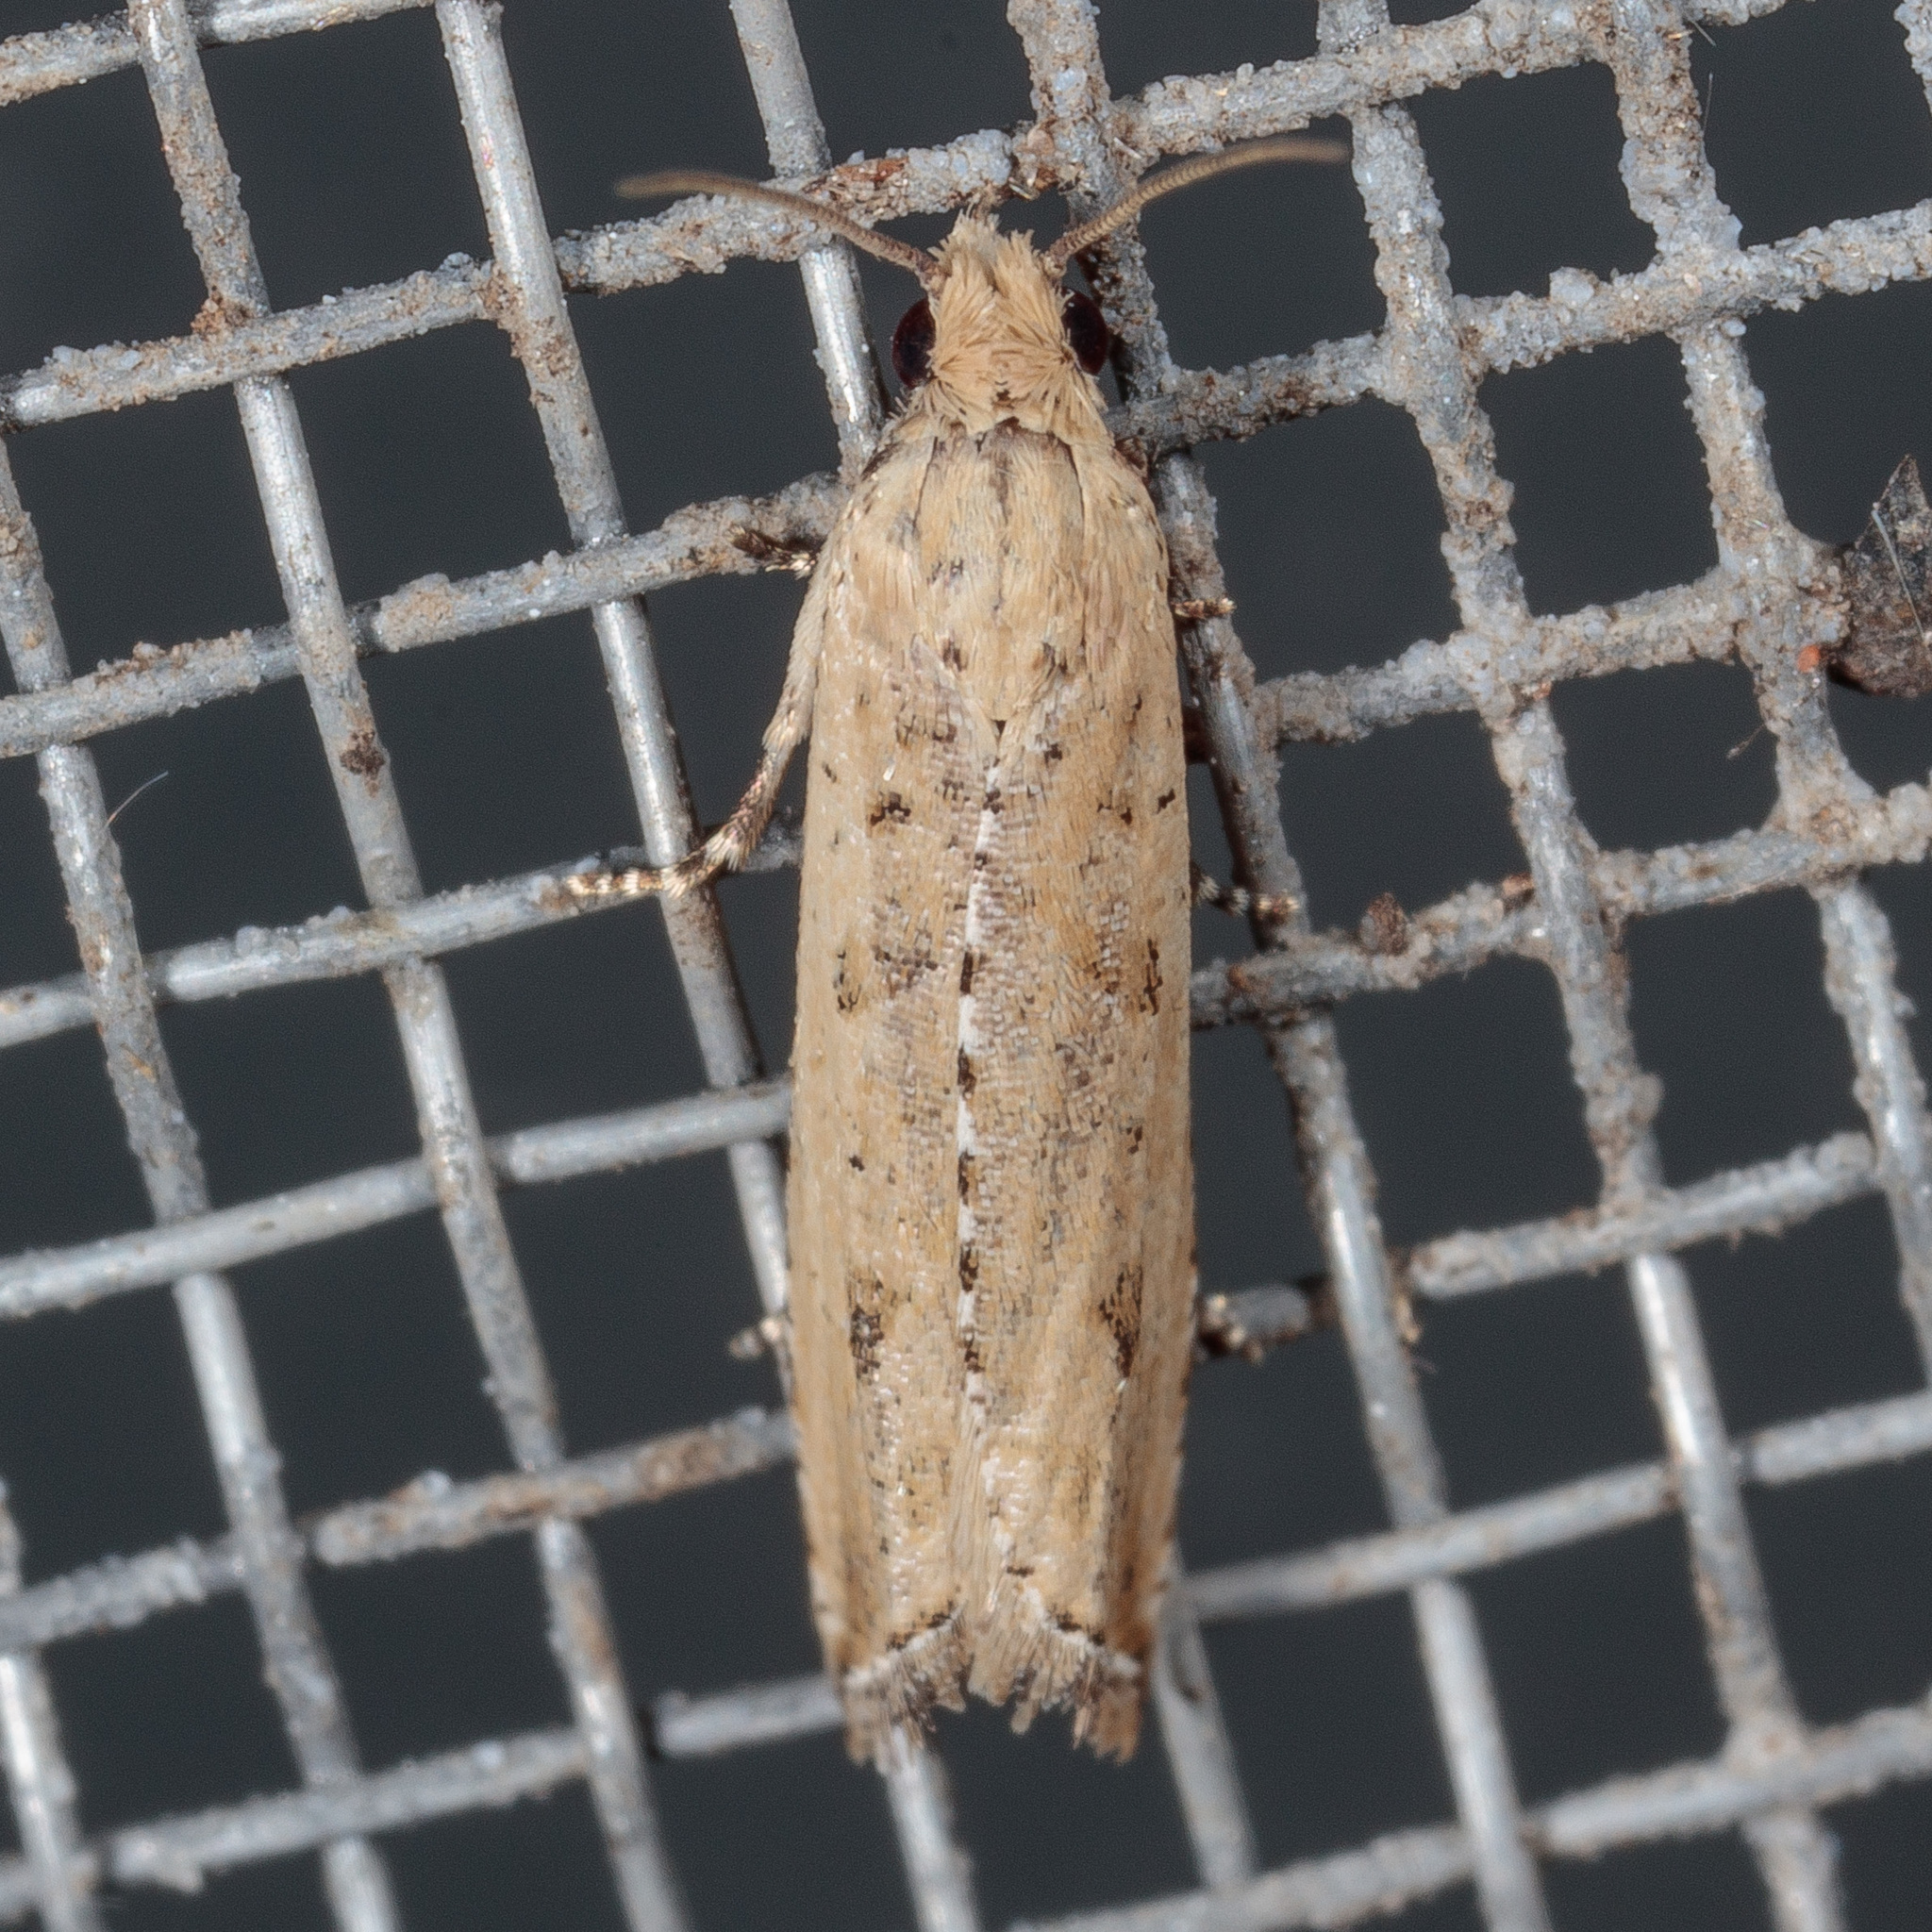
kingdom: Animalia
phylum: Arthropoda
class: Insecta
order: Lepidoptera
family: Tortricidae
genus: Bactra
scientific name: Bactra verutana
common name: Javelin moth
